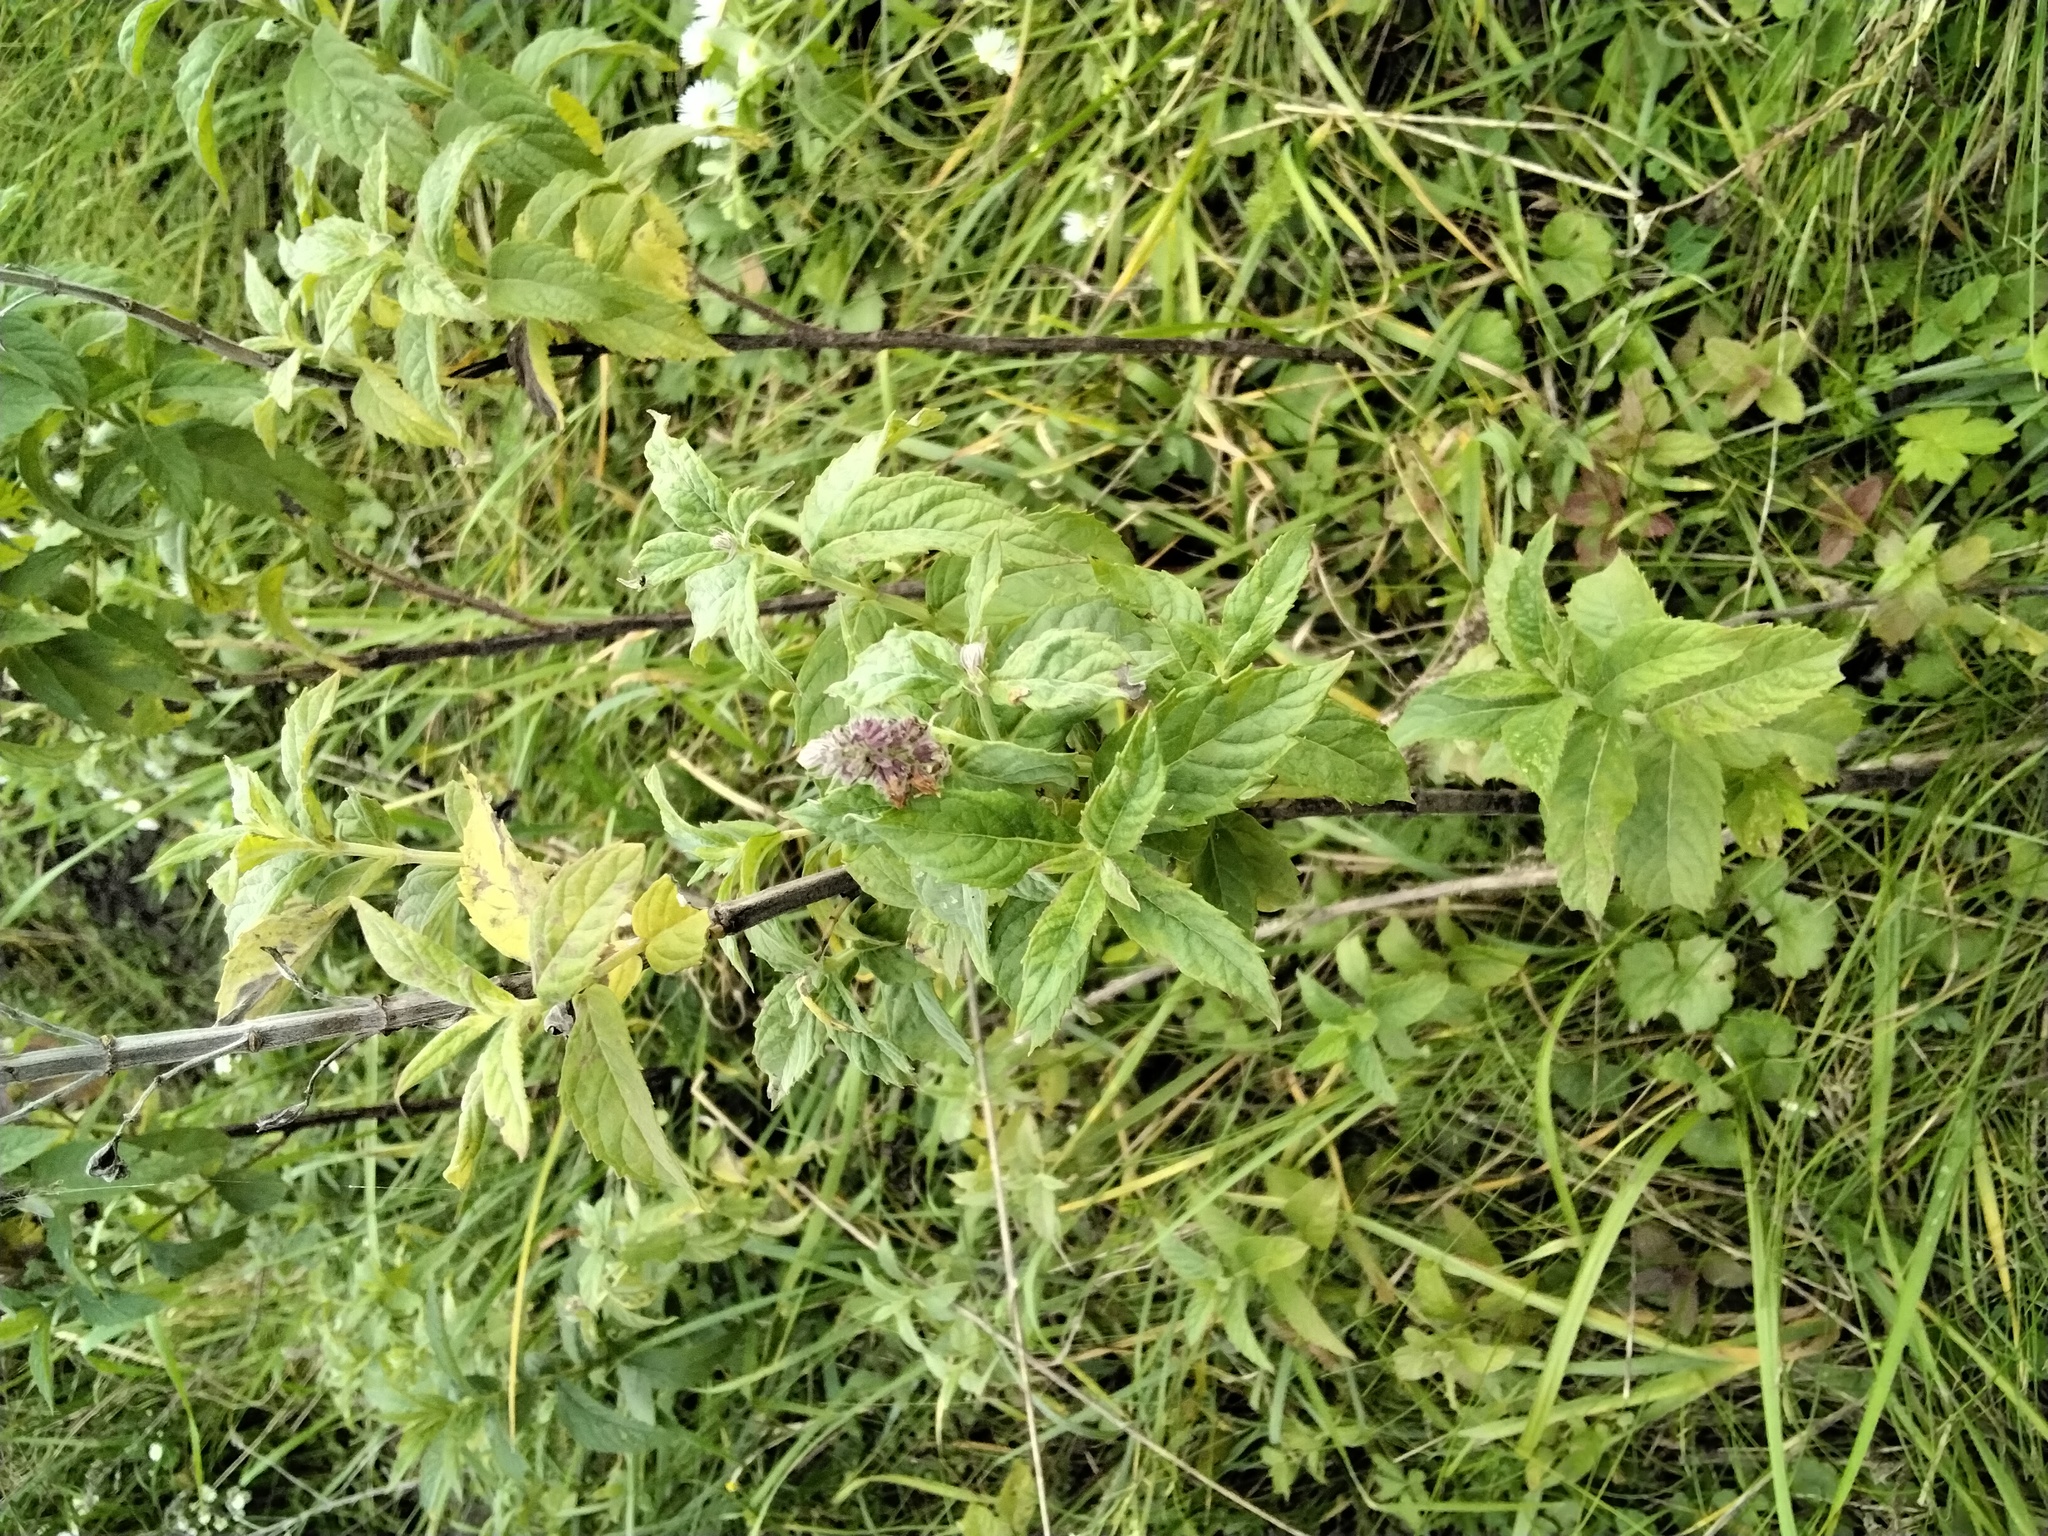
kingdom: Plantae
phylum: Tracheophyta
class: Magnoliopsida
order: Lamiales
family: Lamiaceae
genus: Mentha
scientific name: Mentha longifolia
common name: Horse mint
